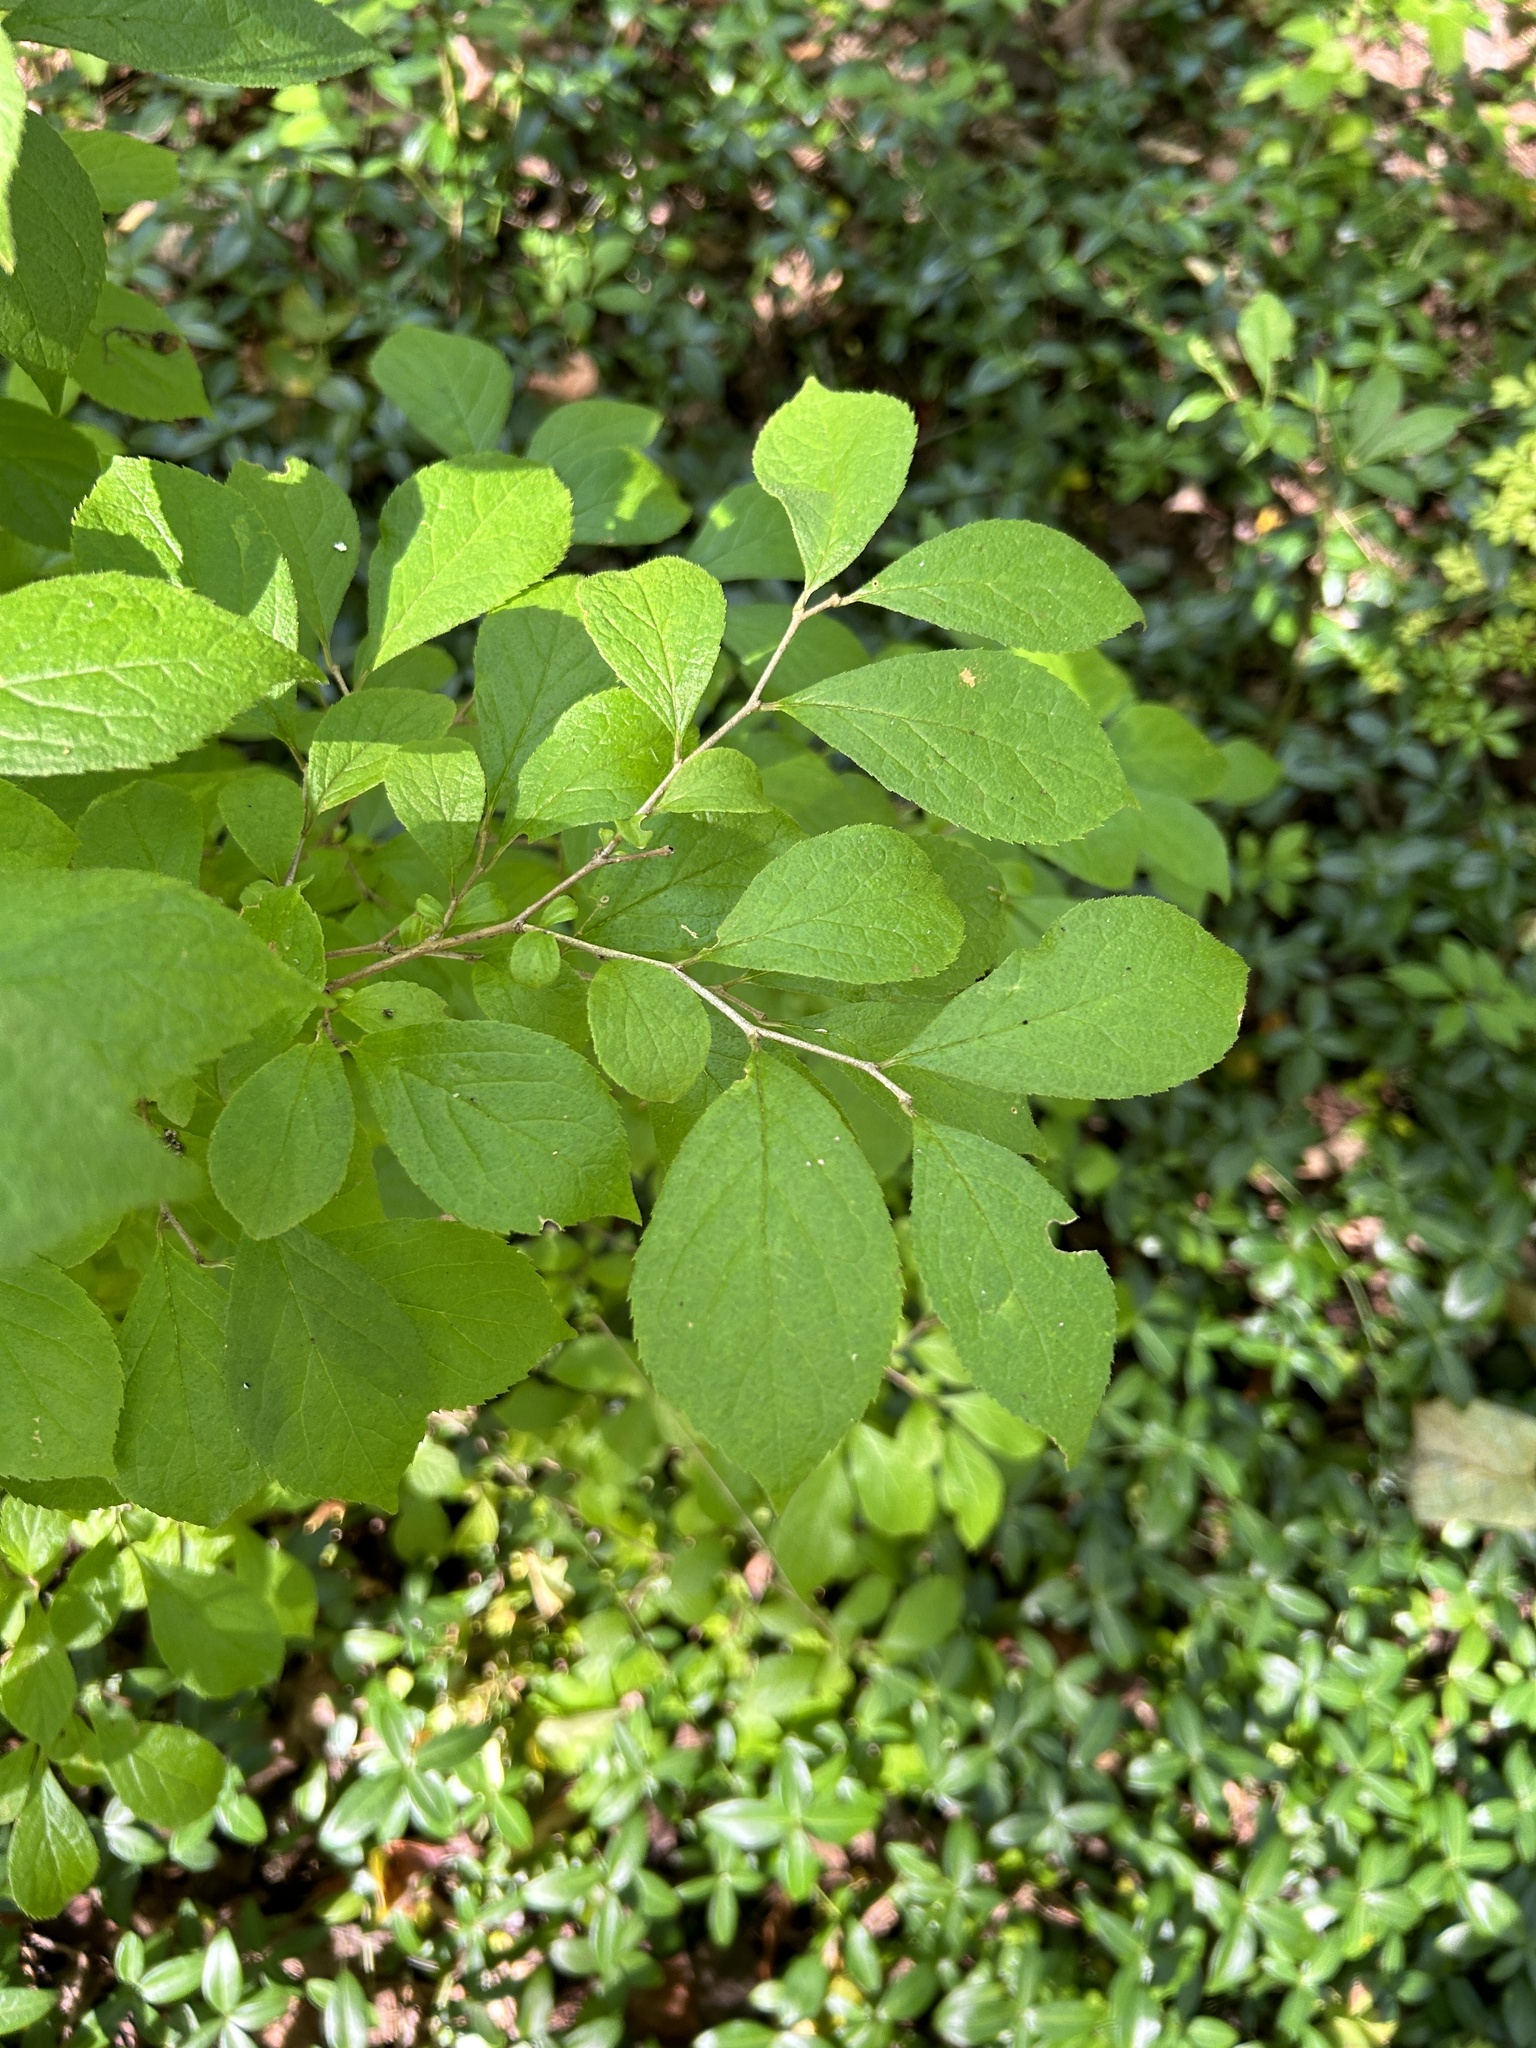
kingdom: Plantae
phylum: Tracheophyta
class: Magnoliopsida
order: Ericales
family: Symplocaceae
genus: Symplocos
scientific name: Symplocos paniculata
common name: Sapphire-berry
